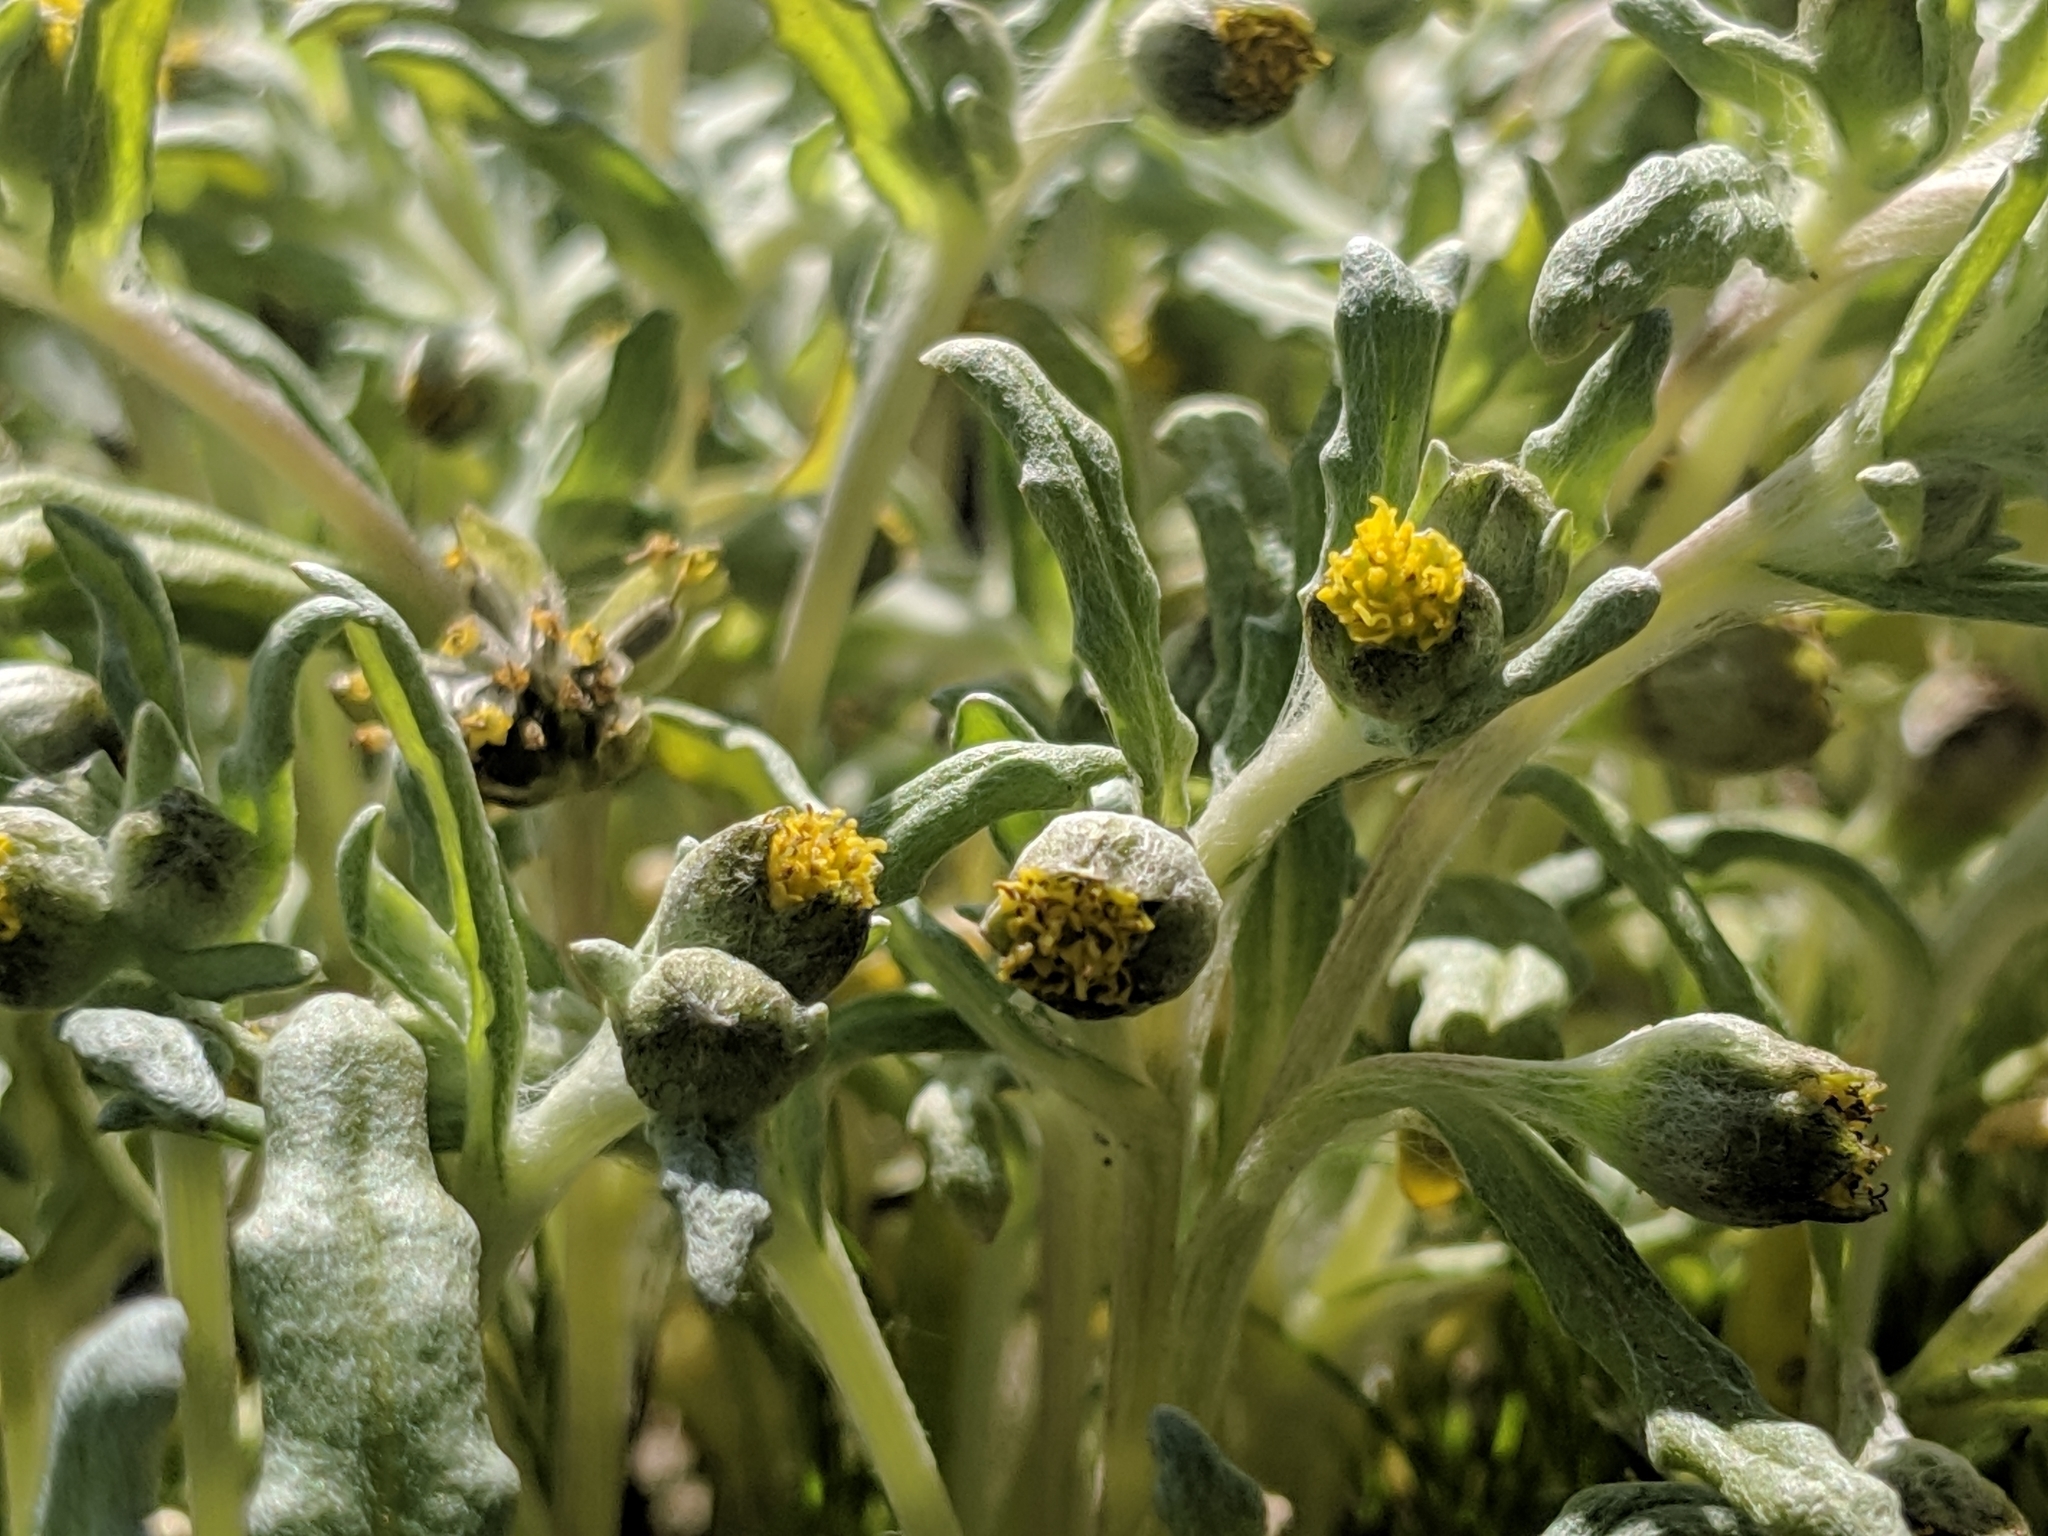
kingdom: Plantae
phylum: Tracheophyta
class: Magnoliopsida
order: Asterales
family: Asteraceae
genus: Monolopia
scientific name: Monolopia congdonii
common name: San joaquin woolly-threads
